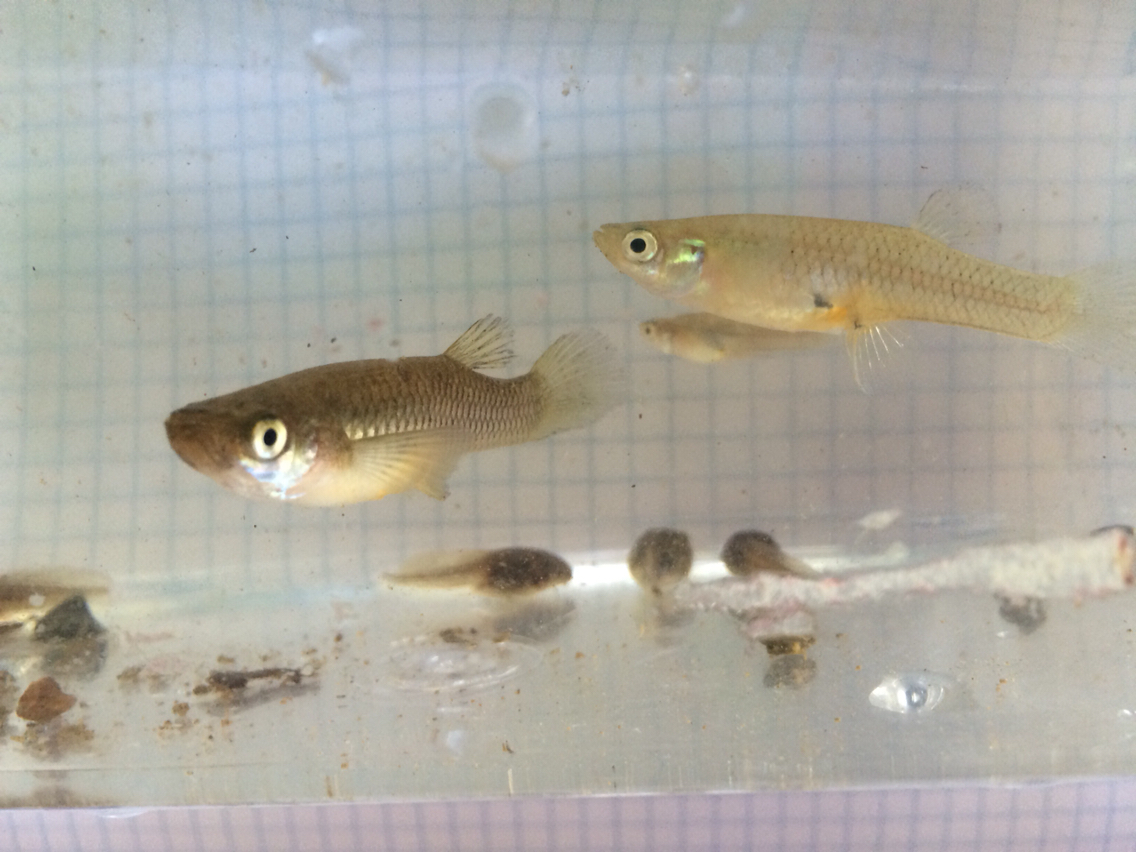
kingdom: Animalia
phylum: Chordata
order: Cyprinodontiformes
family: Poeciliidae
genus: Gambusia
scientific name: Gambusia holbrooki
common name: Eastern mosquitofish
